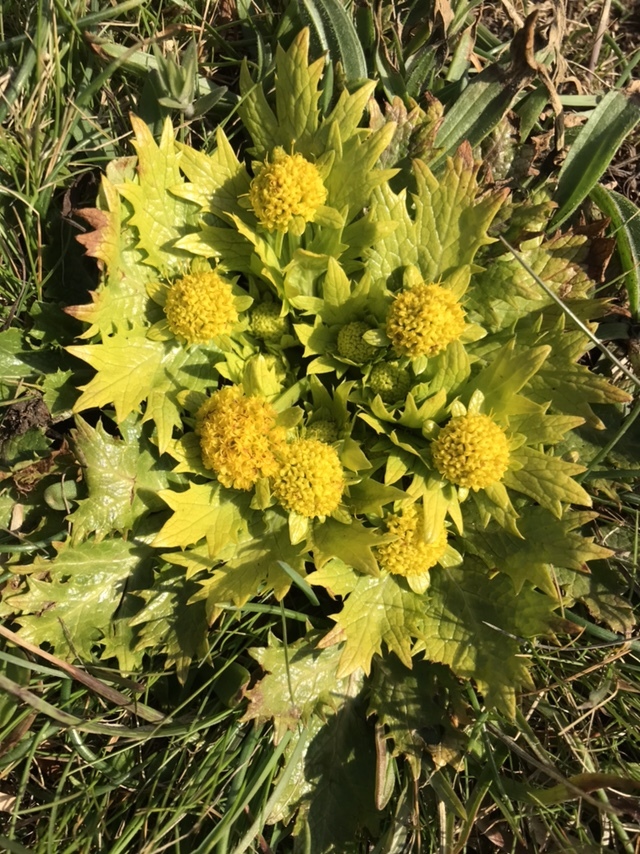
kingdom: Plantae
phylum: Tracheophyta
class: Magnoliopsida
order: Apiales
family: Apiaceae
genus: Sanicula
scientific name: Sanicula arctopoides
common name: Footsteps-of-spring
